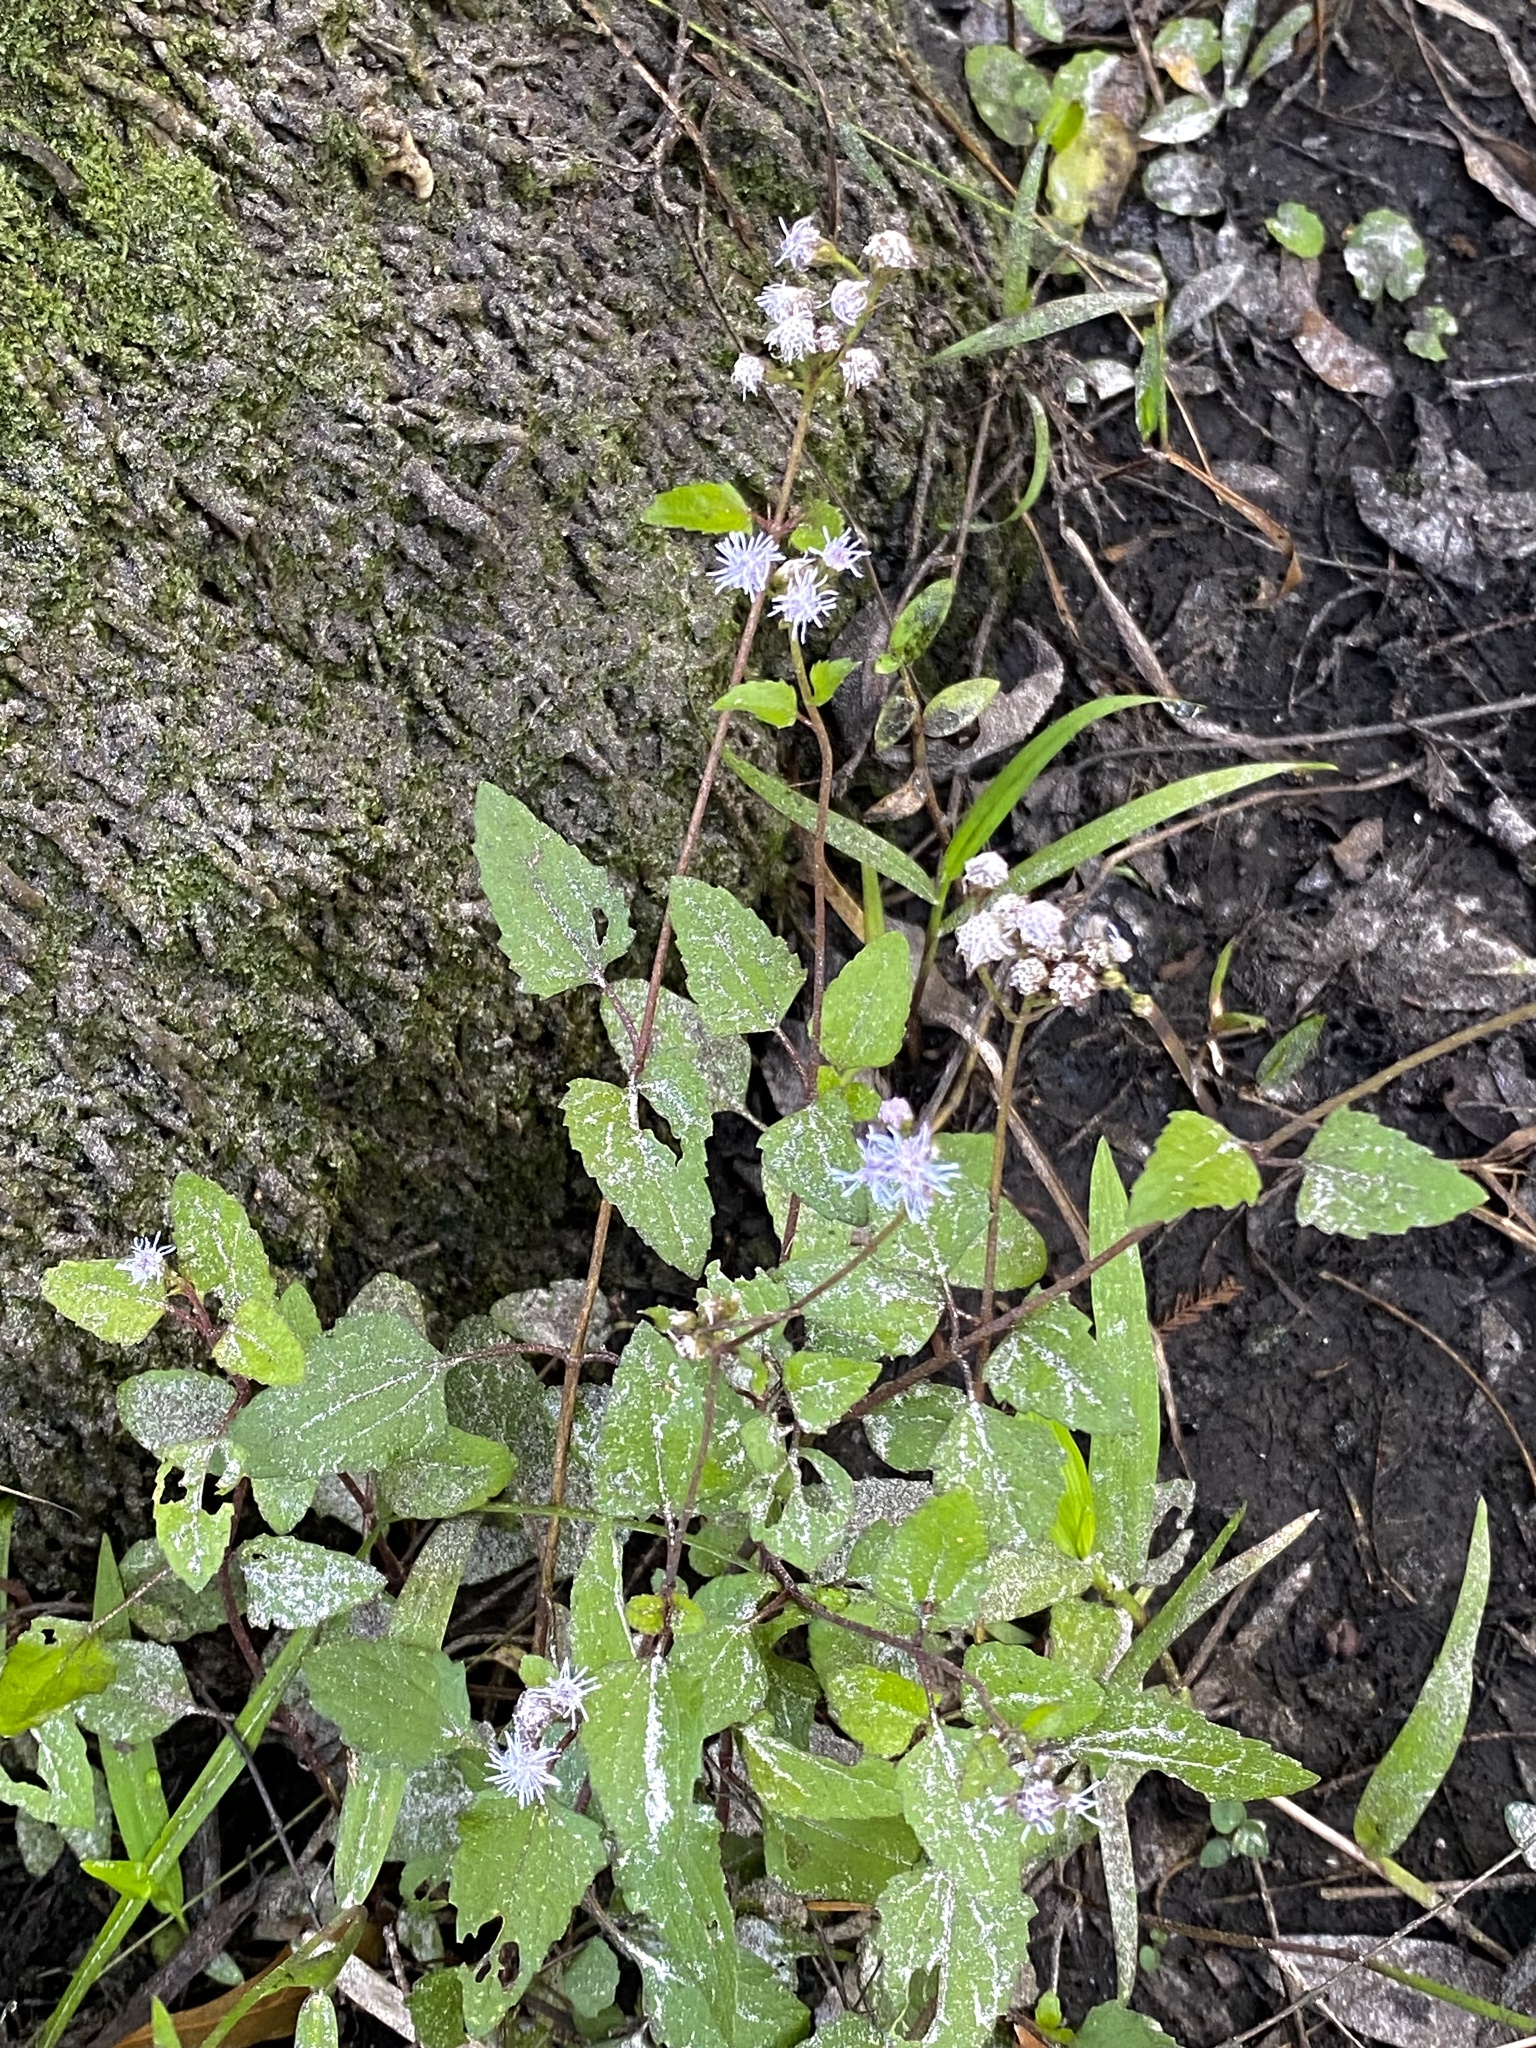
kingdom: Plantae
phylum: Tracheophyta
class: Magnoliopsida
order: Asterales
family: Asteraceae
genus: Conoclinium
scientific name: Conoclinium coelestinum
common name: Blue mistflower
